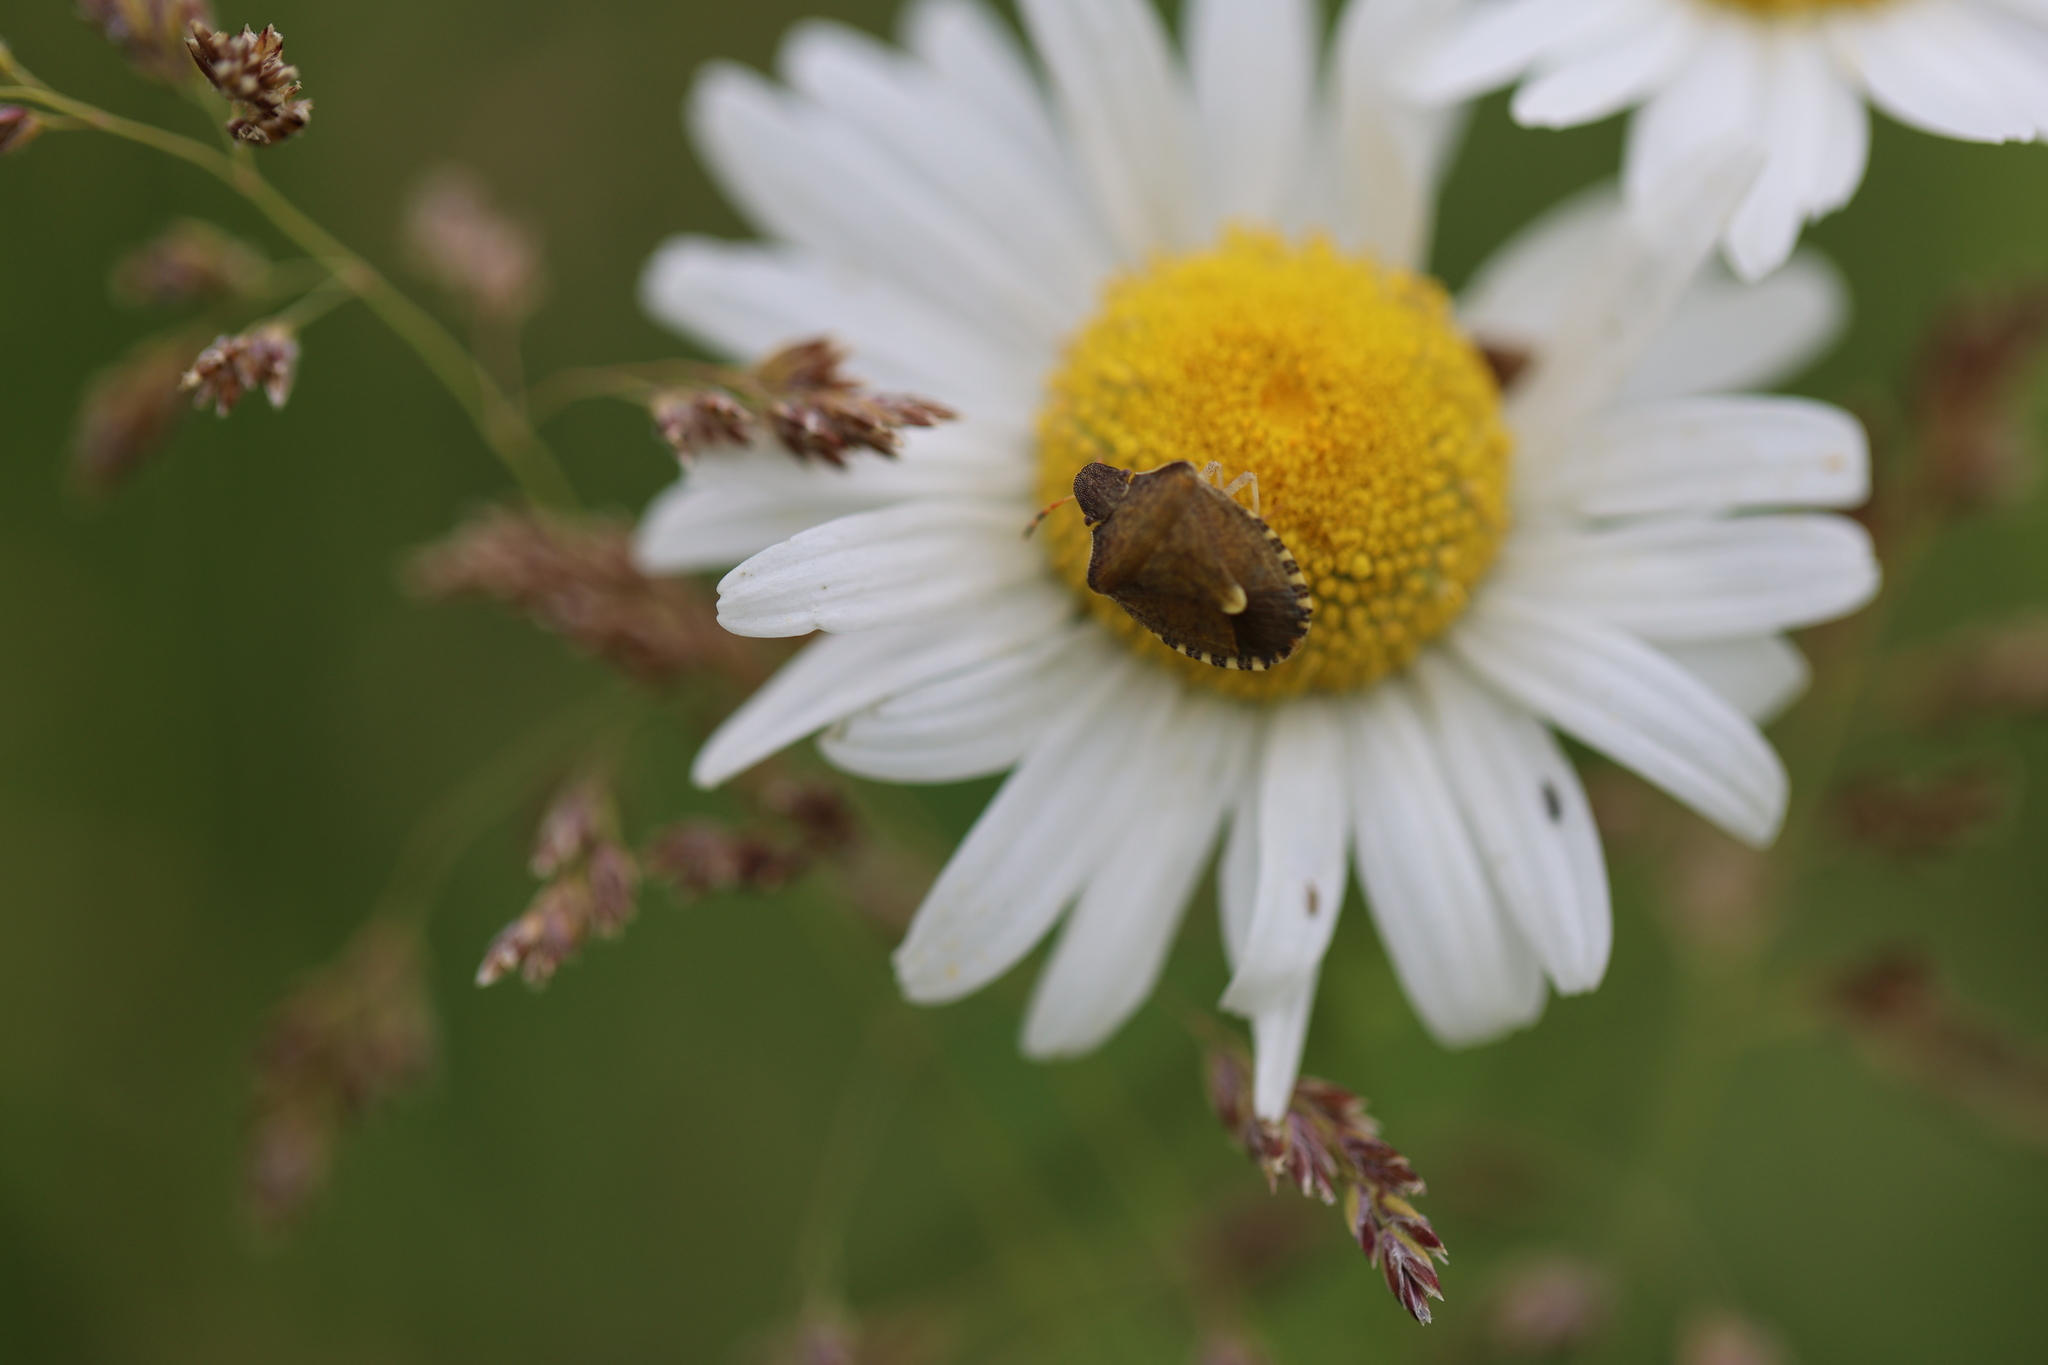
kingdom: Animalia
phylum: Arthropoda
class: Insecta
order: Hemiptera
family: Pentatomidae
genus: Holcostethus
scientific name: Holcostethus strictus
